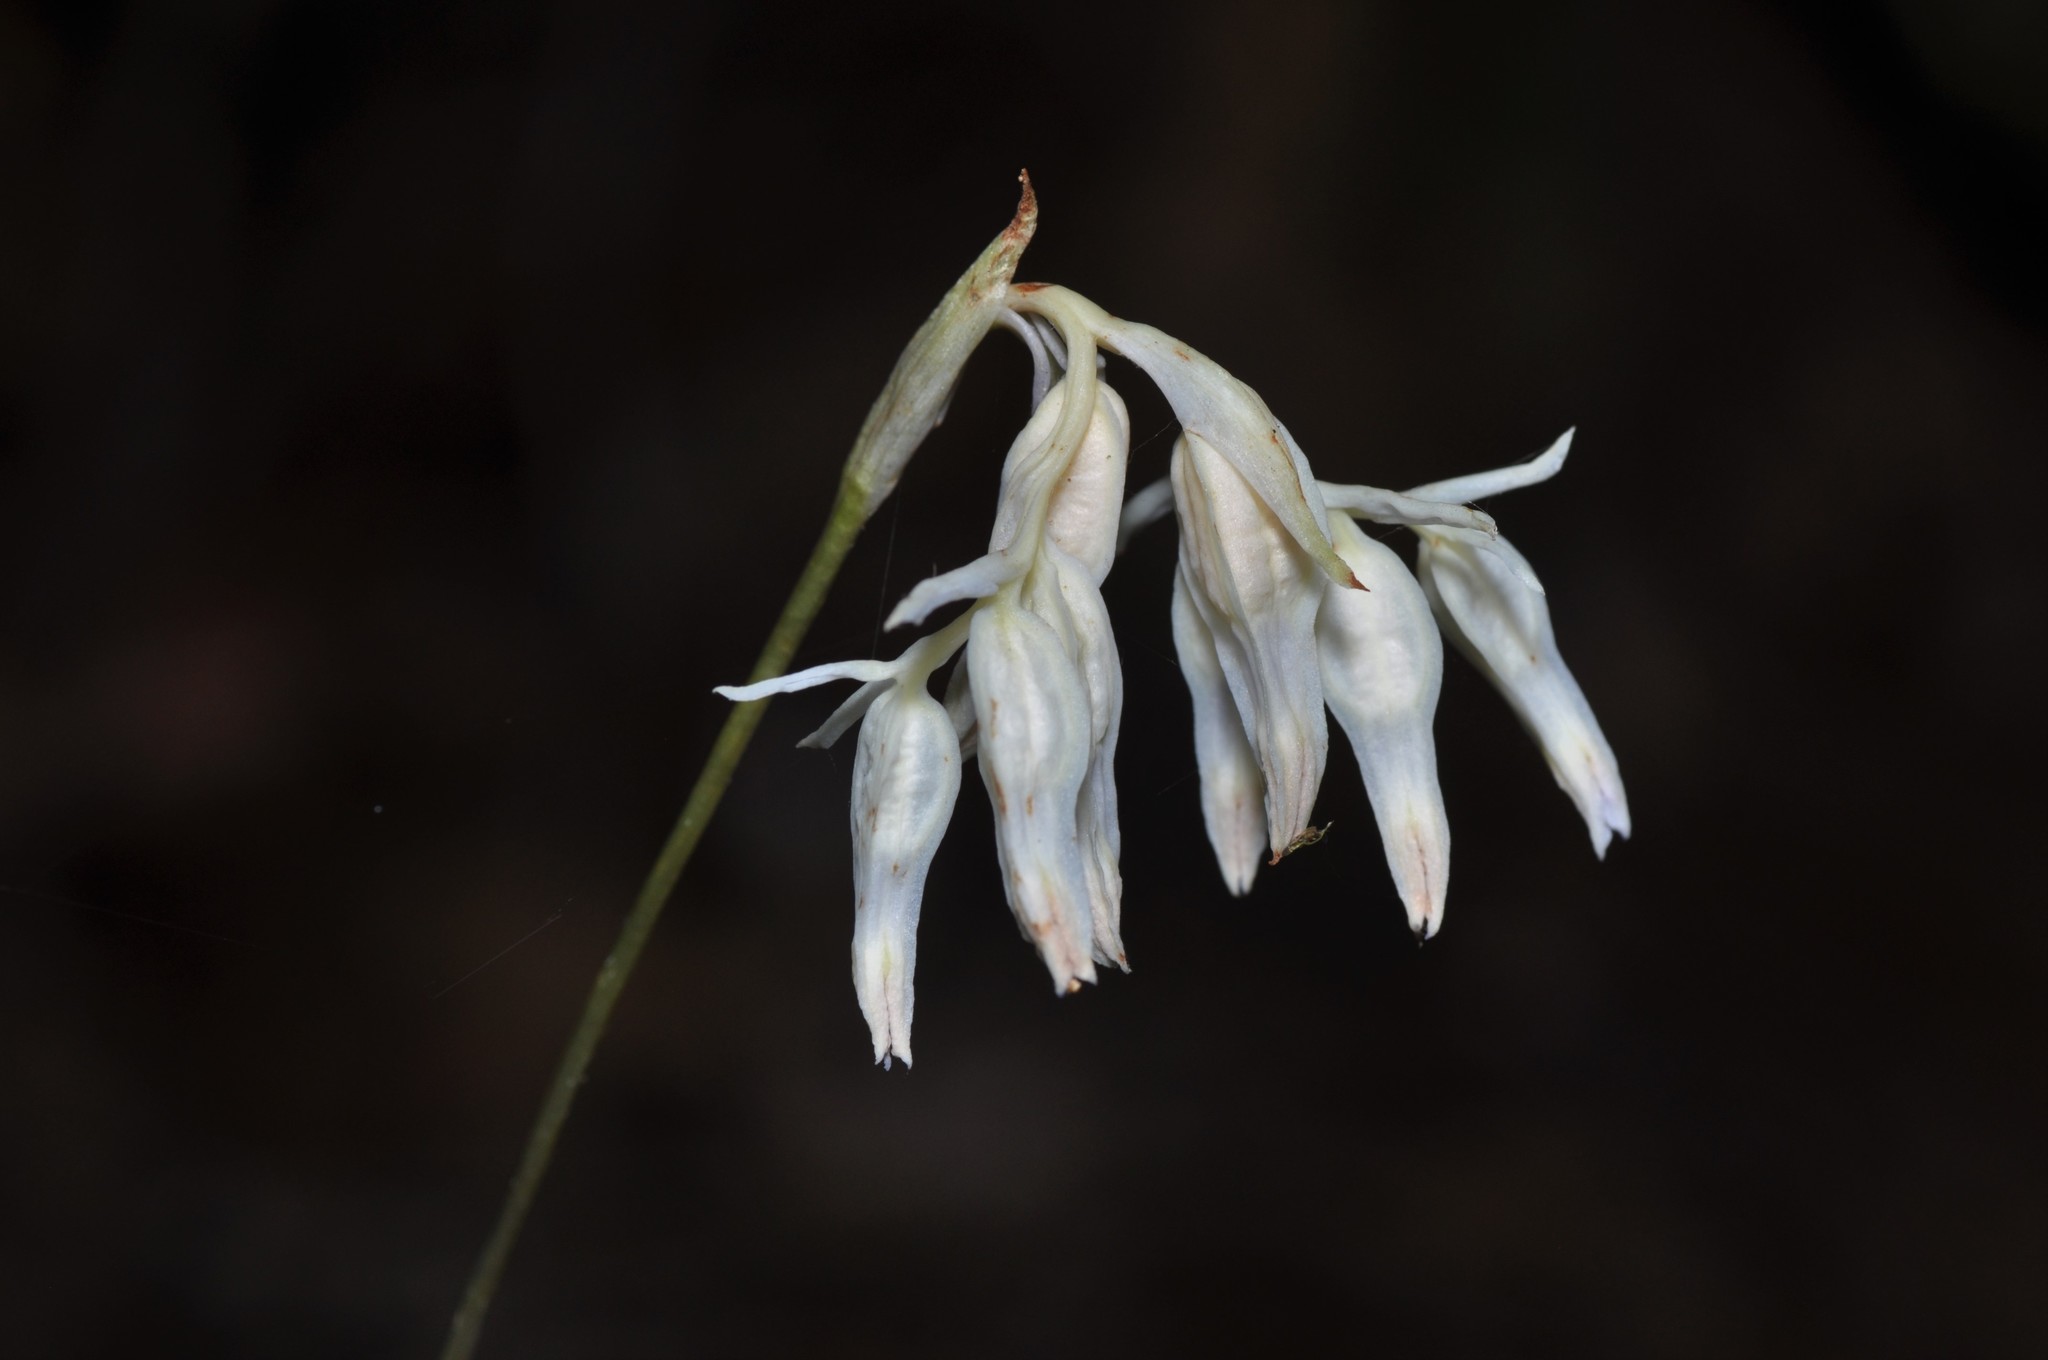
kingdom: Plantae
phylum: Tracheophyta
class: Liliopsida
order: Dioscoreales
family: Burmanniaceae
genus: Burmannia
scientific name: Burmannia longifolia
